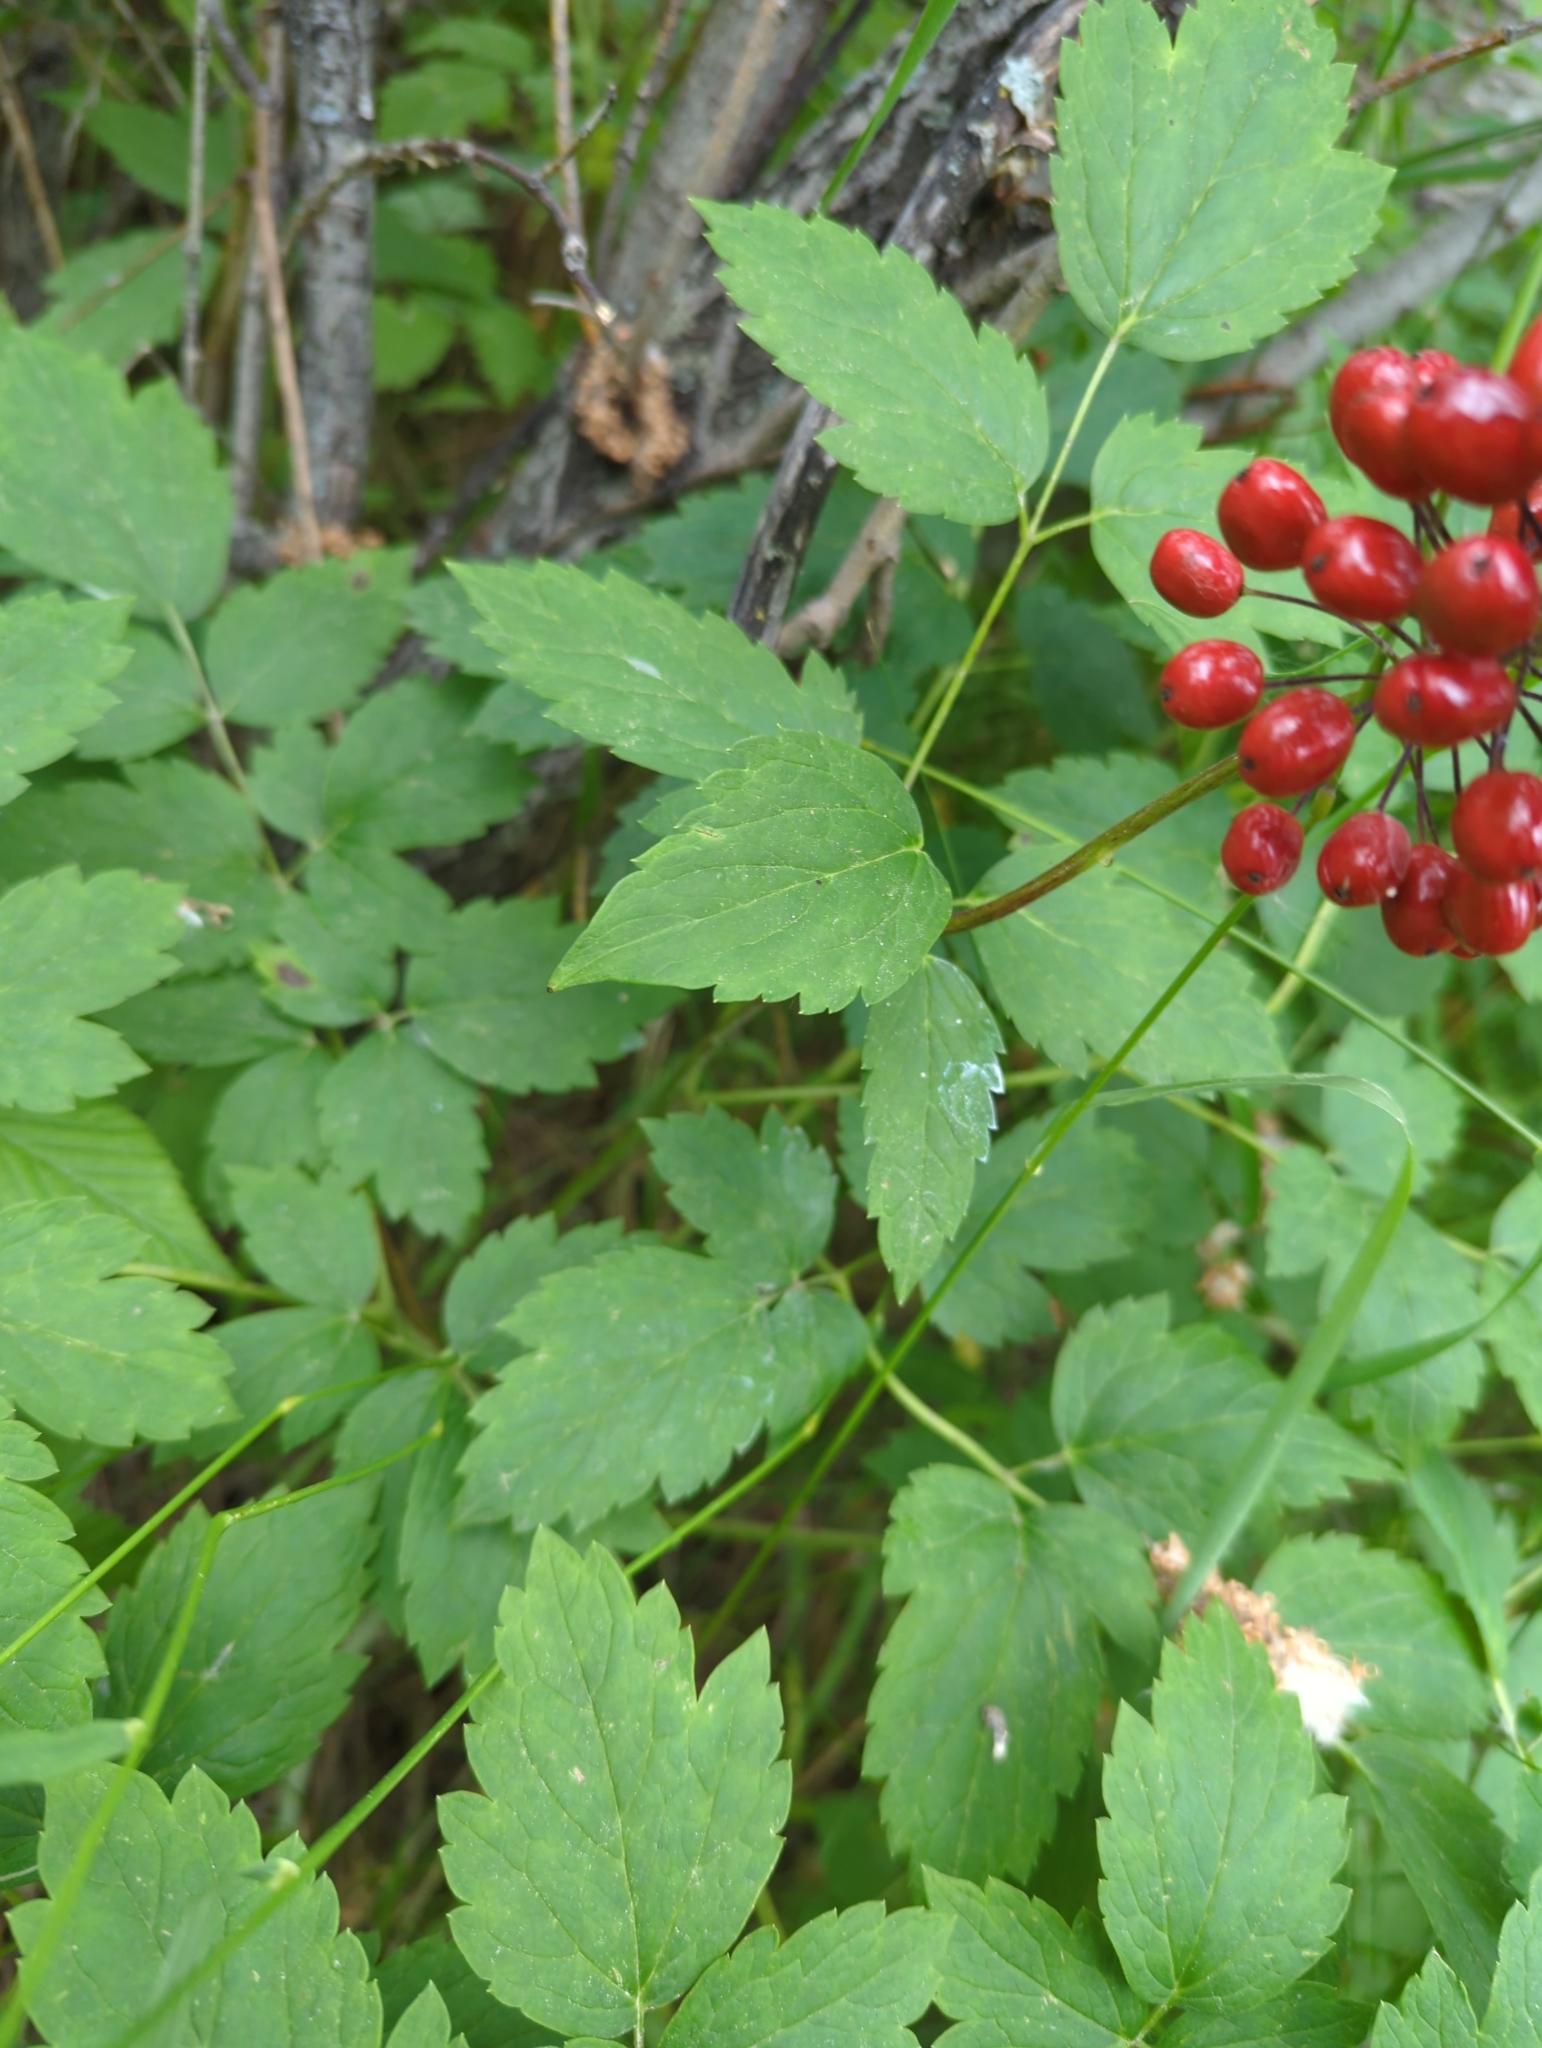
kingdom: Plantae
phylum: Tracheophyta
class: Magnoliopsida
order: Ranunculales
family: Ranunculaceae
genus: Actaea
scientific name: Actaea rubra
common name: Red baneberry
